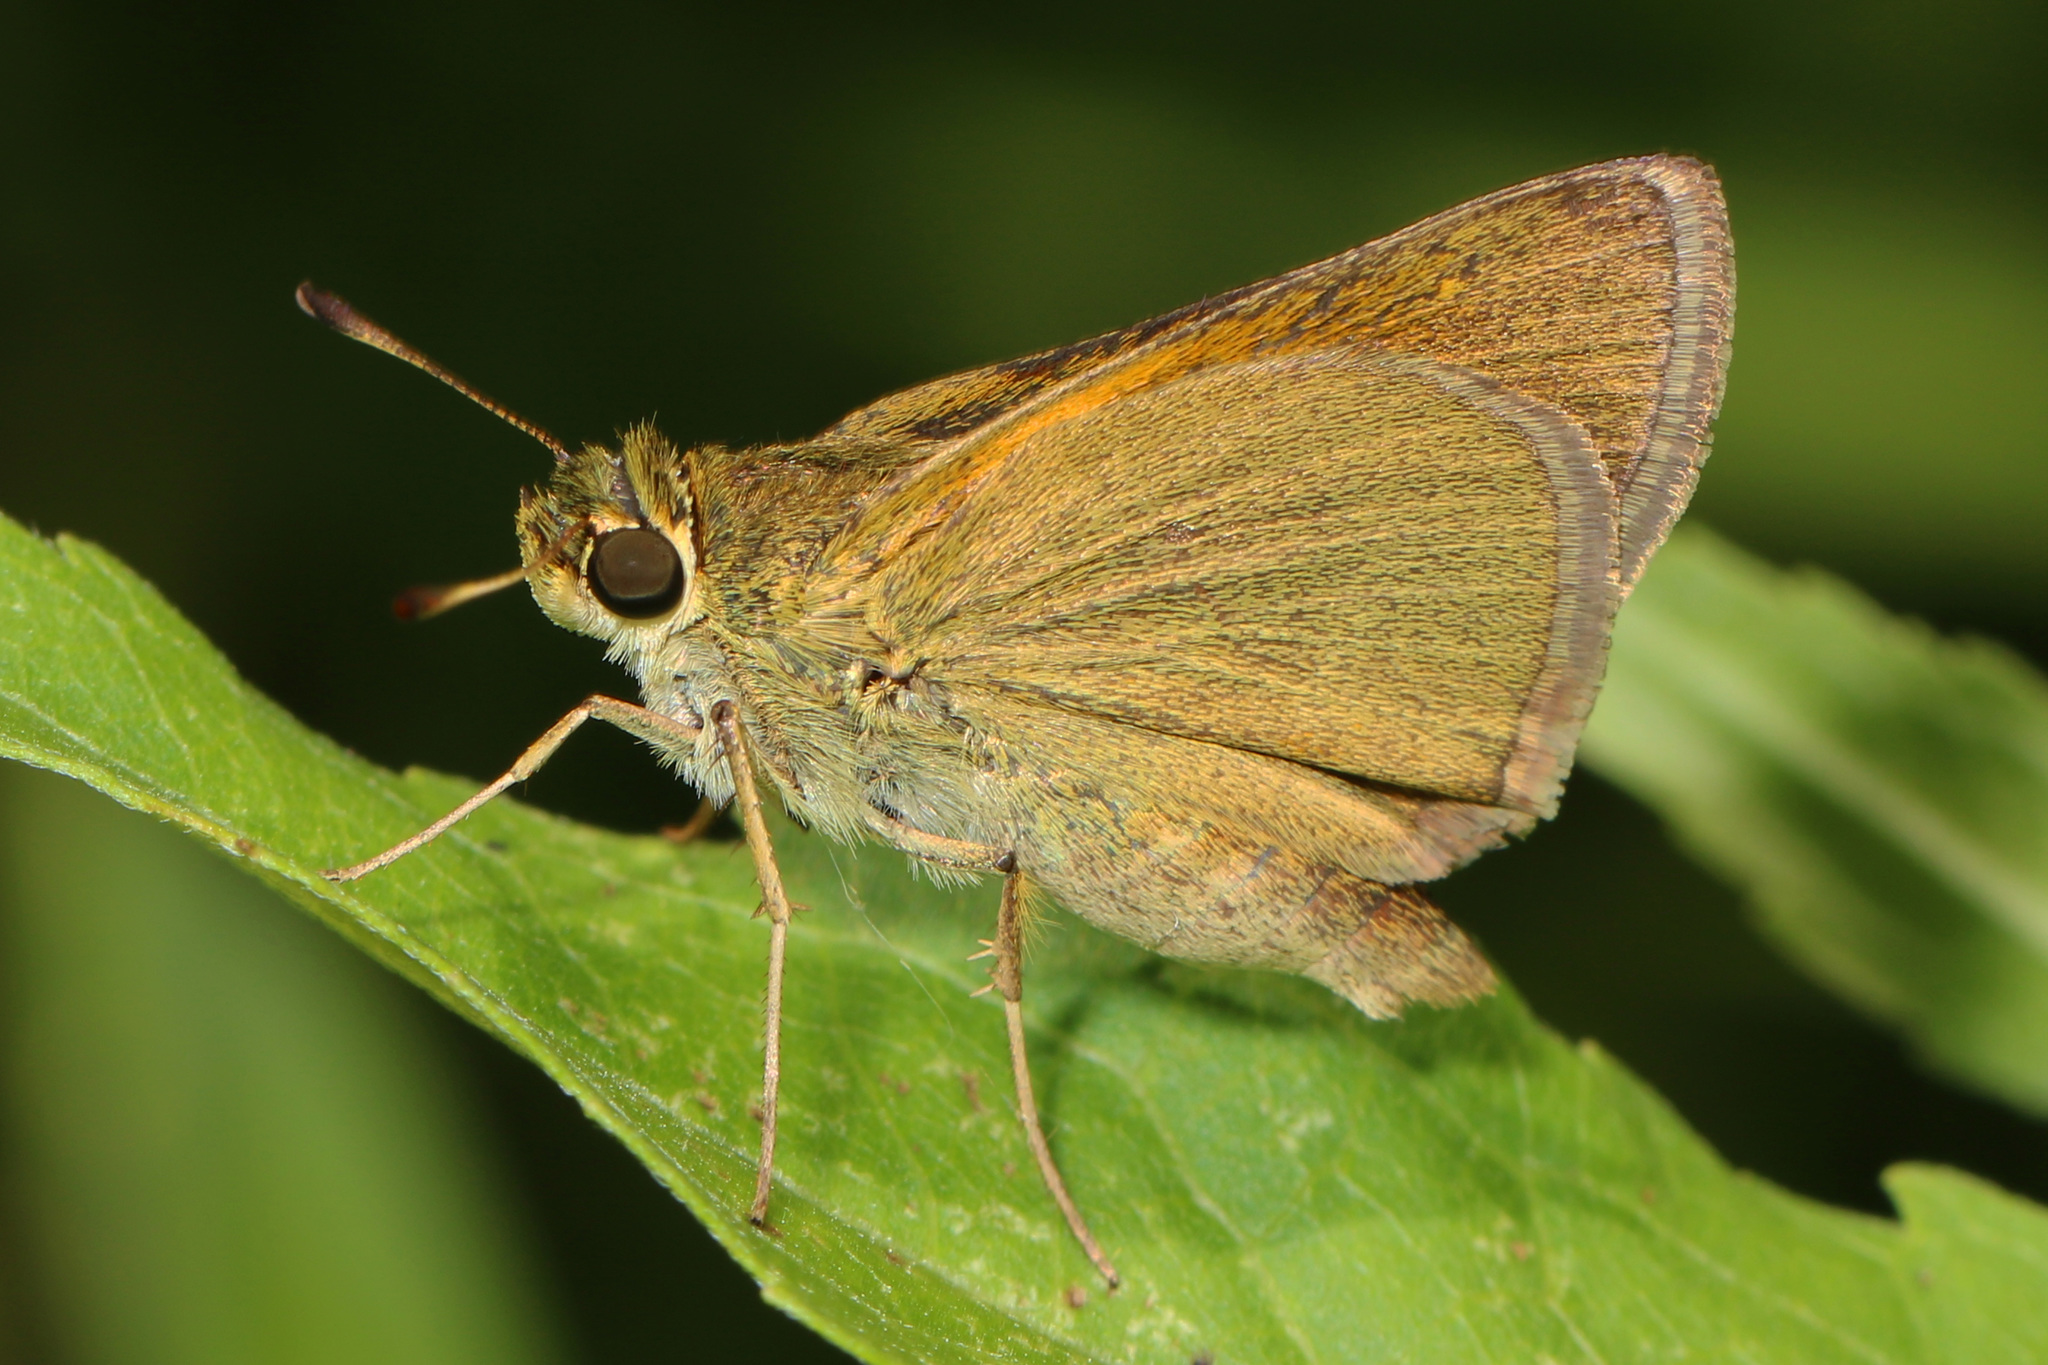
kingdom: Animalia
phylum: Arthropoda
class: Insecta
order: Lepidoptera
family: Hesperiidae
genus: Polites
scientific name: Polites themistocles
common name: Tawny-edged skipper
